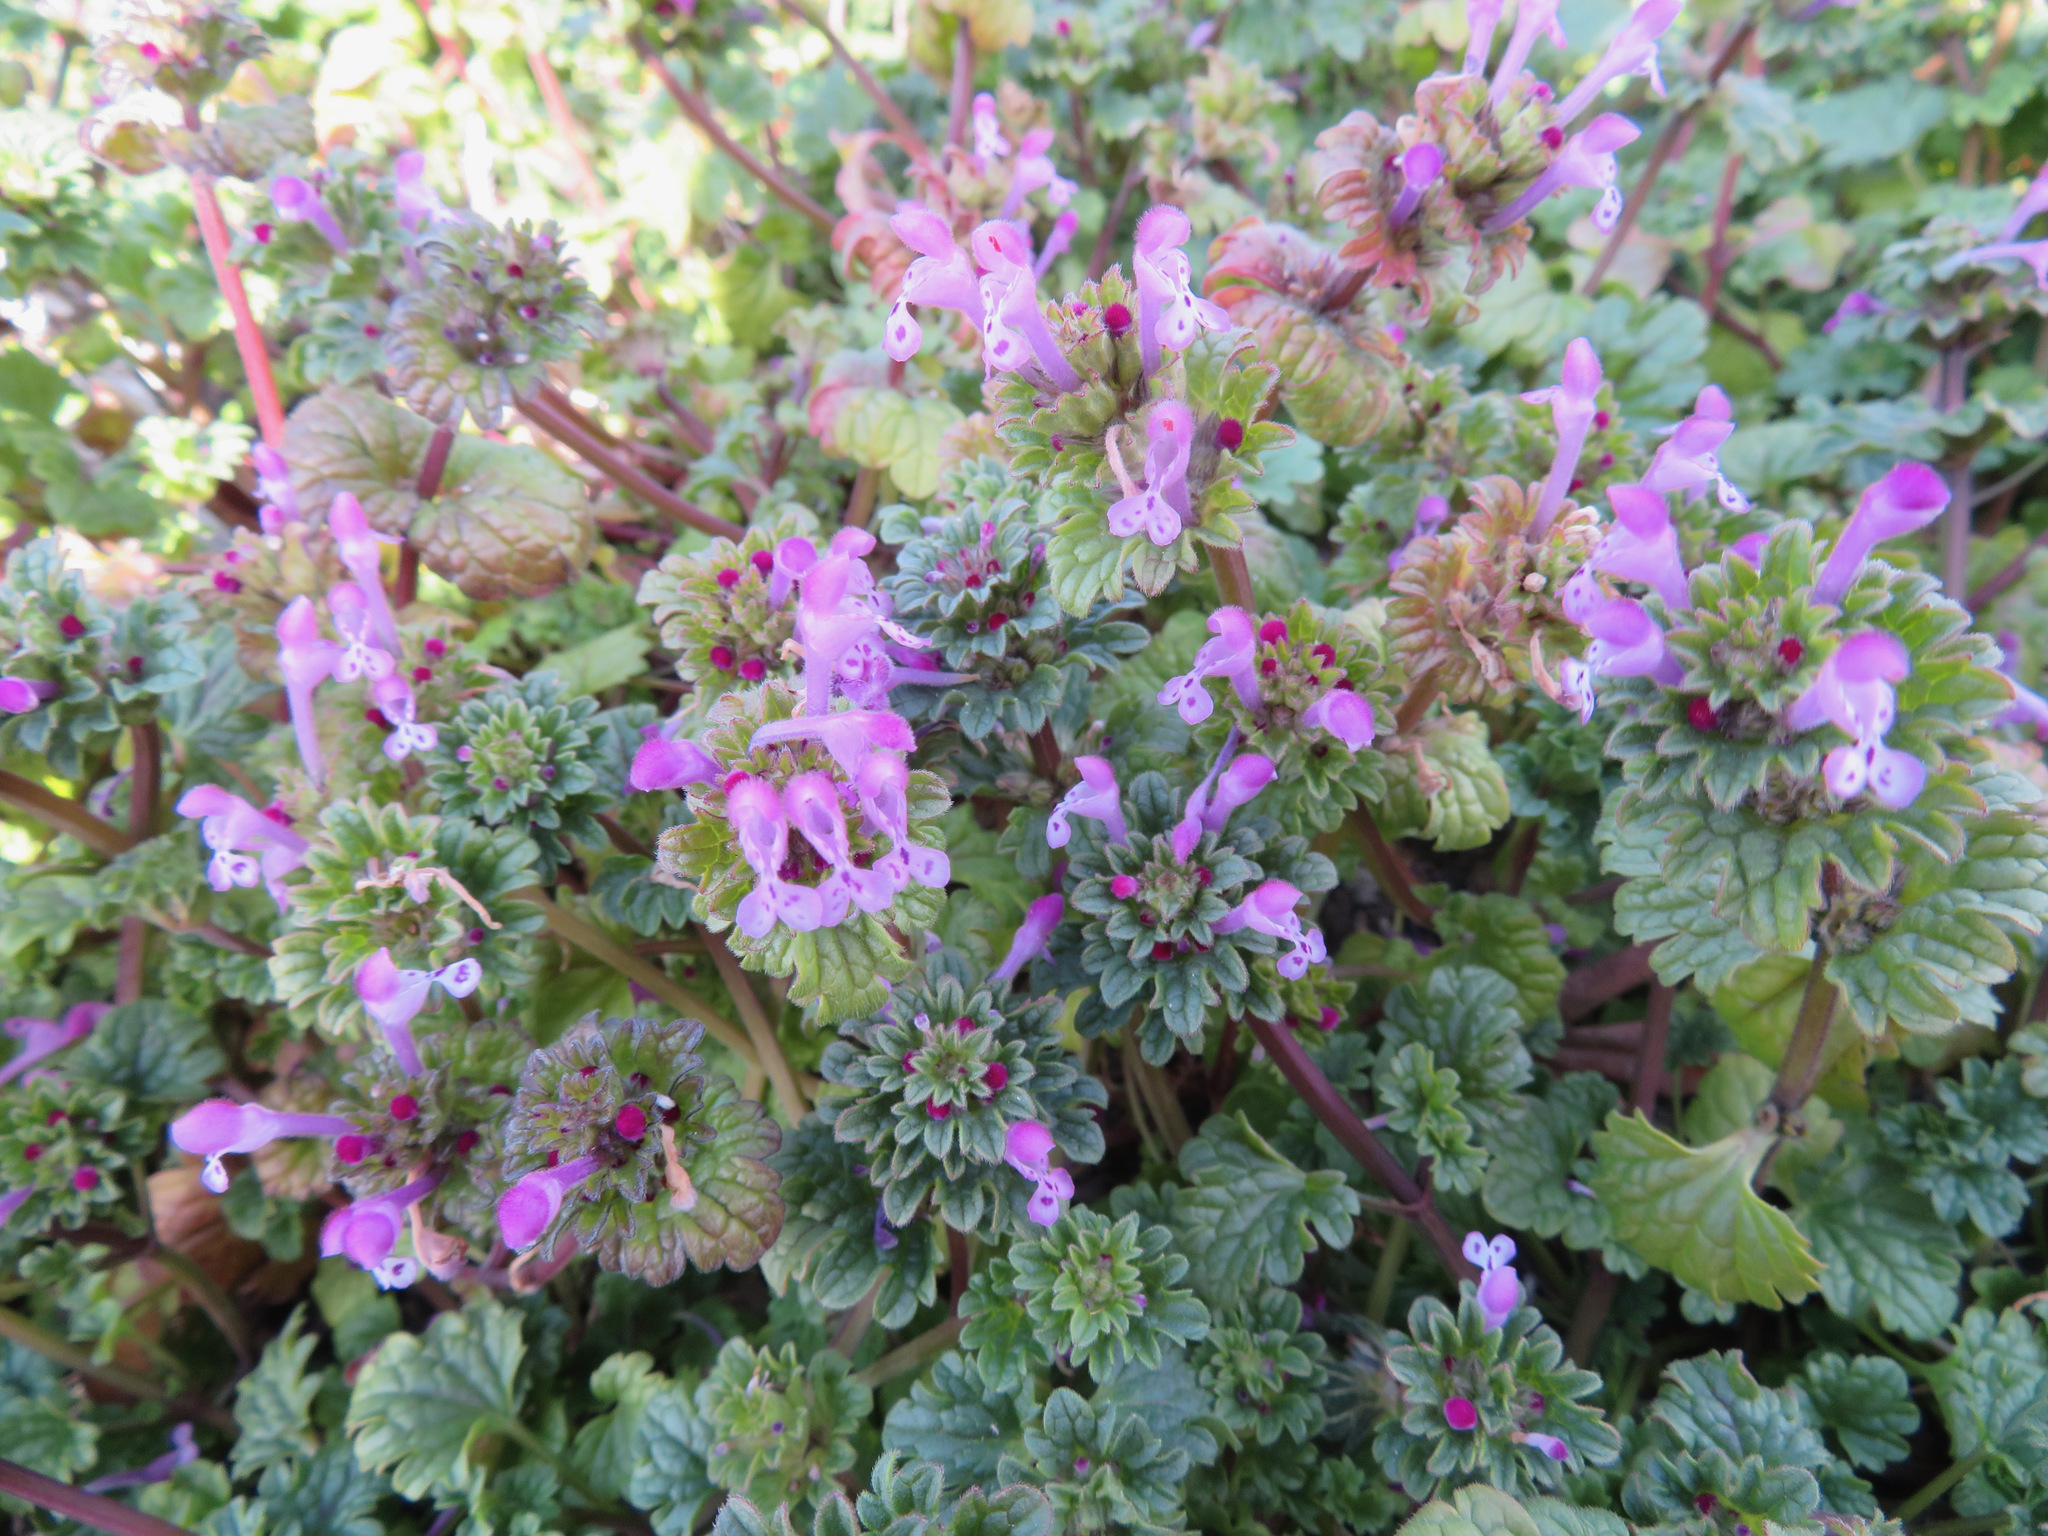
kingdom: Plantae
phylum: Tracheophyta
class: Magnoliopsida
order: Lamiales
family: Lamiaceae
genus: Lamium
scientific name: Lamium amplexicaule
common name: Henbit dead-nettle
